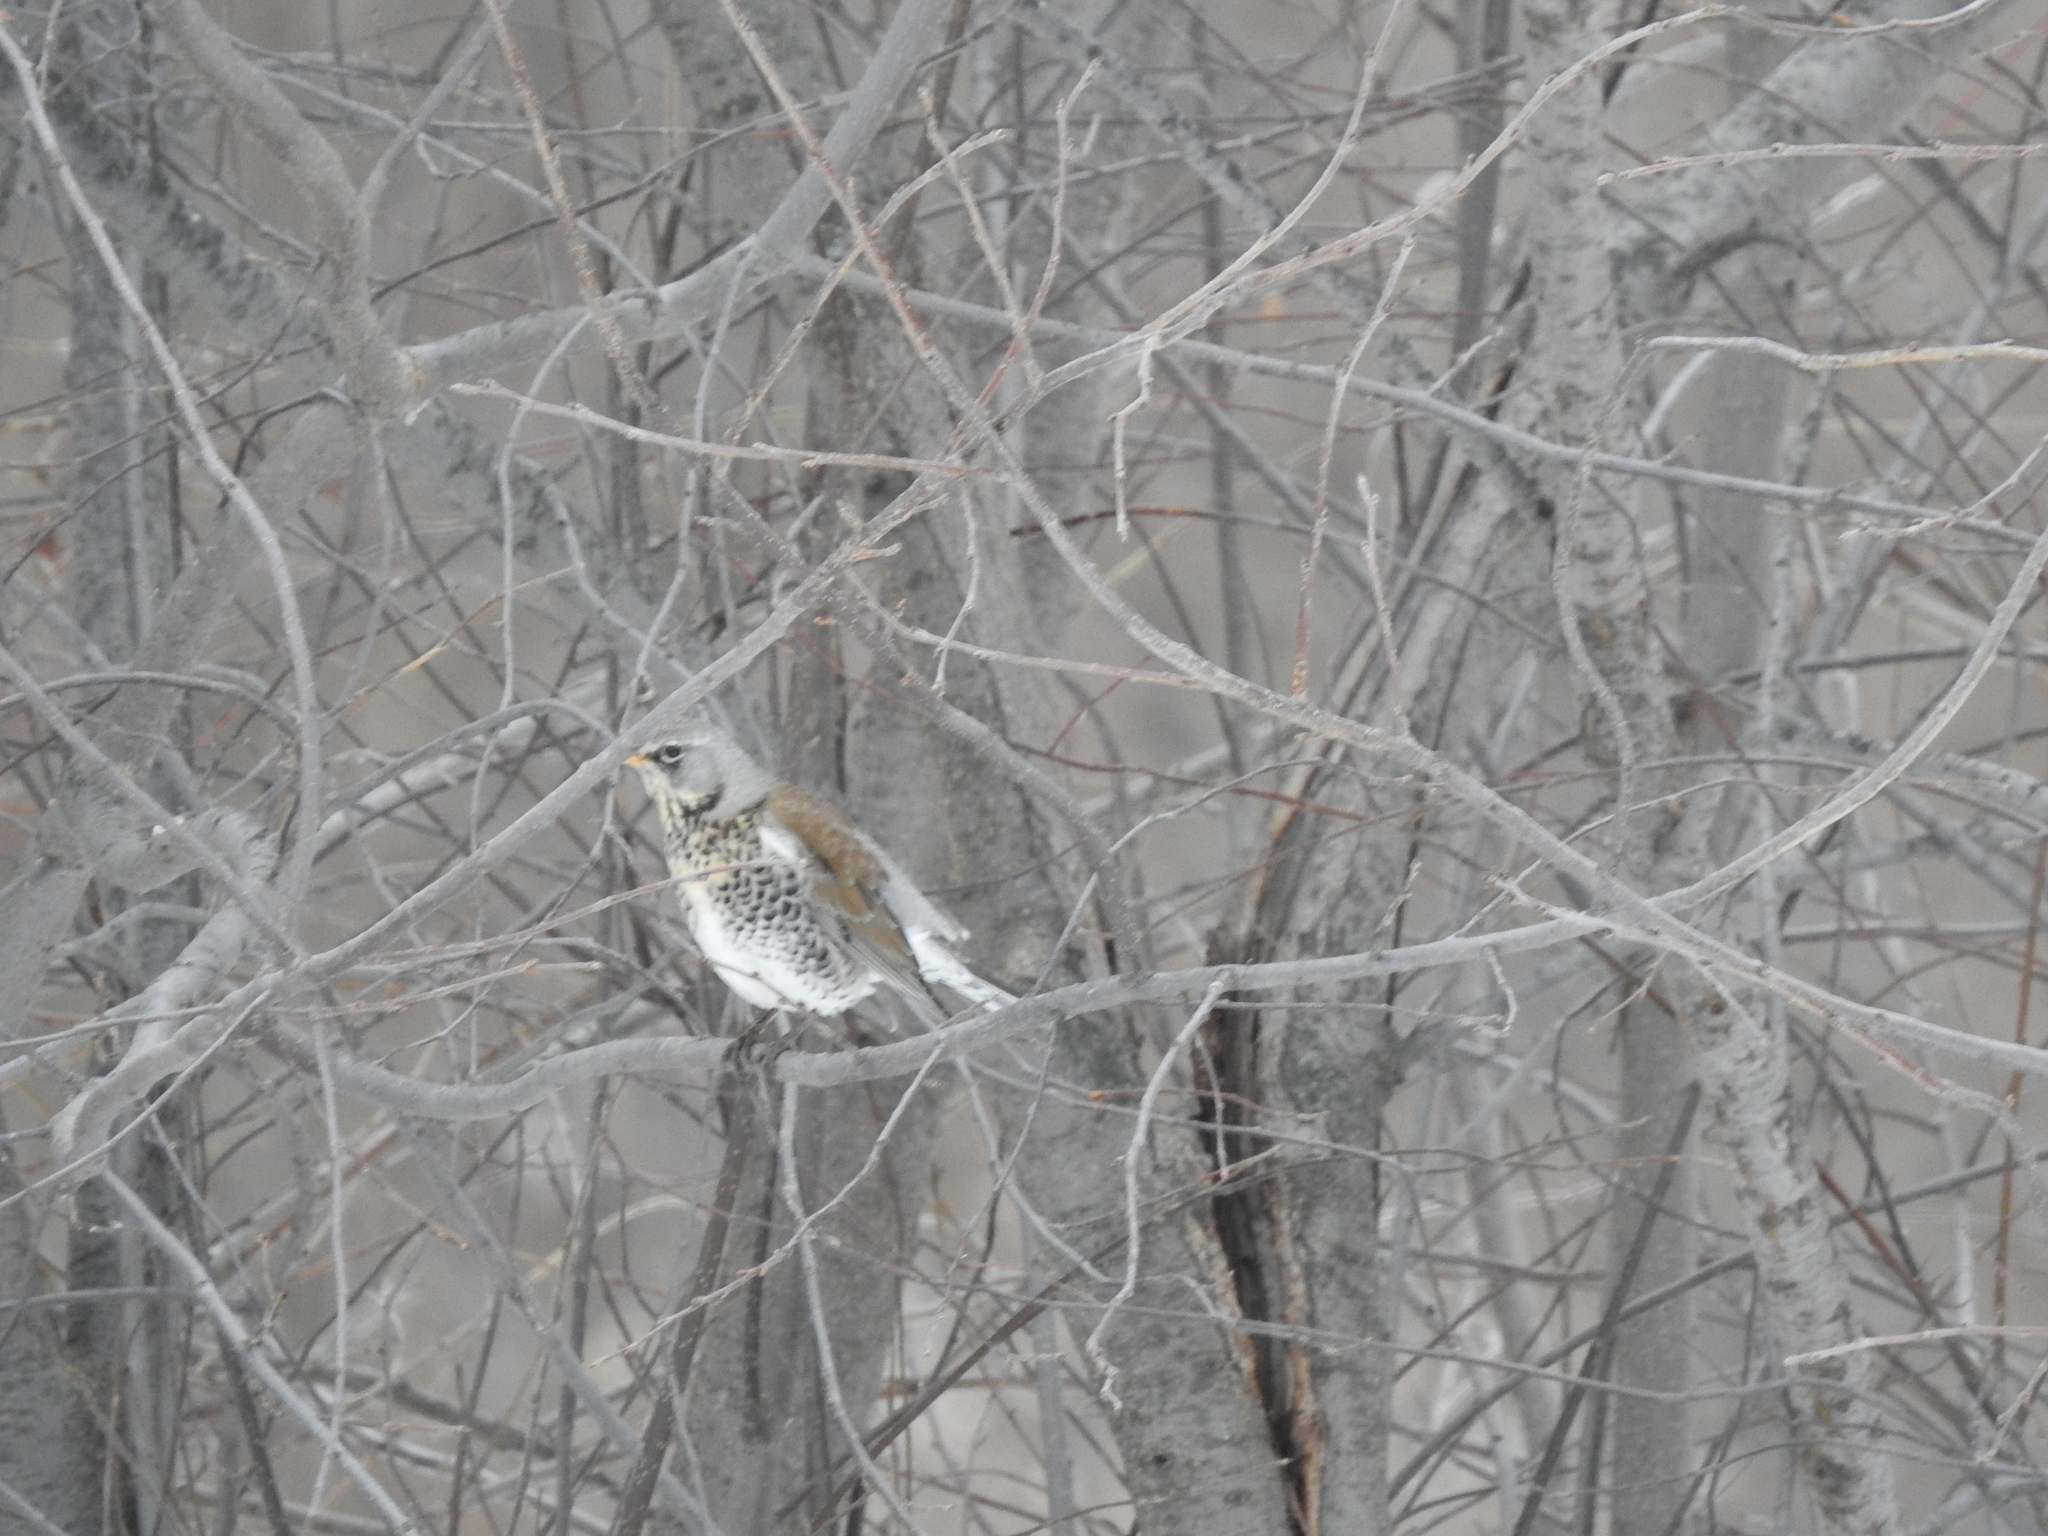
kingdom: Animalia
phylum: Chordata
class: Aves
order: Passeriformes
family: Turdidae
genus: Turdus
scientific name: Turdus pilaris
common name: Fieldfare
